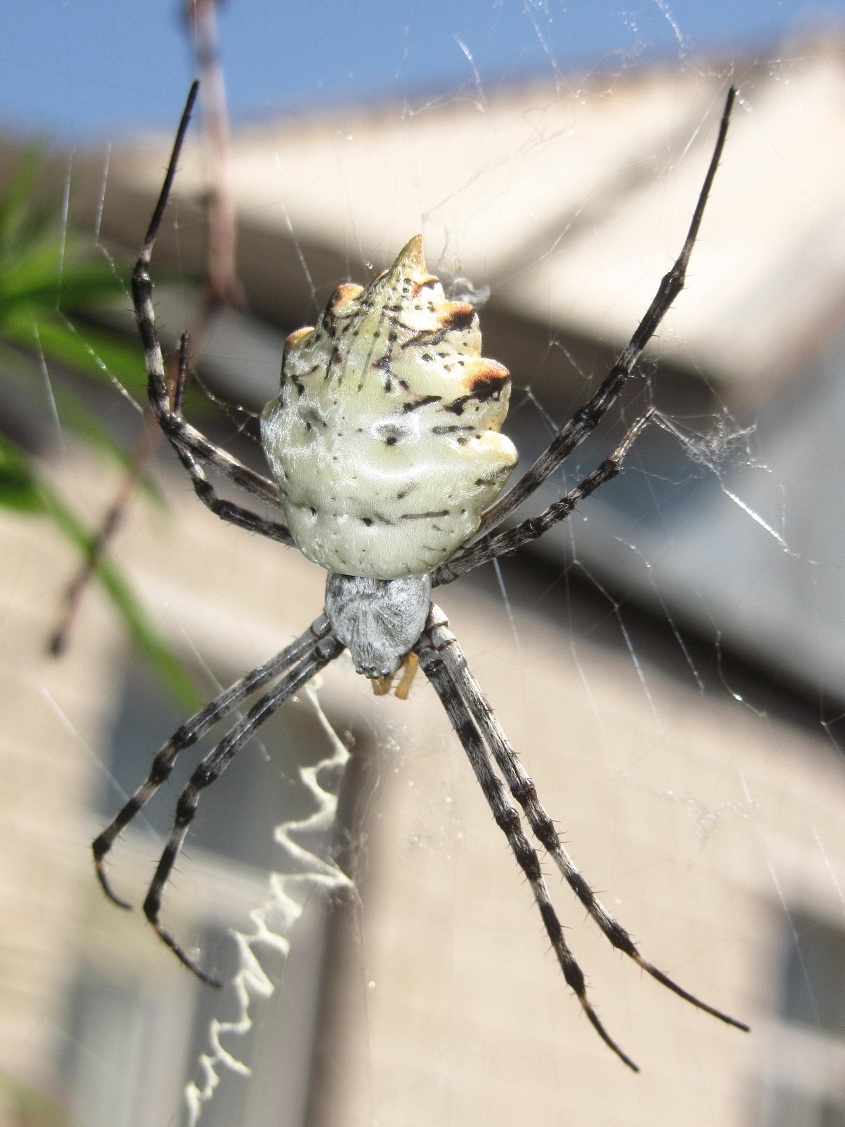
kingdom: Animalia
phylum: Arthropoda
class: Arachnida
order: Araneae
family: Araneidae
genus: Argiope
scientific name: Argiope lobata
